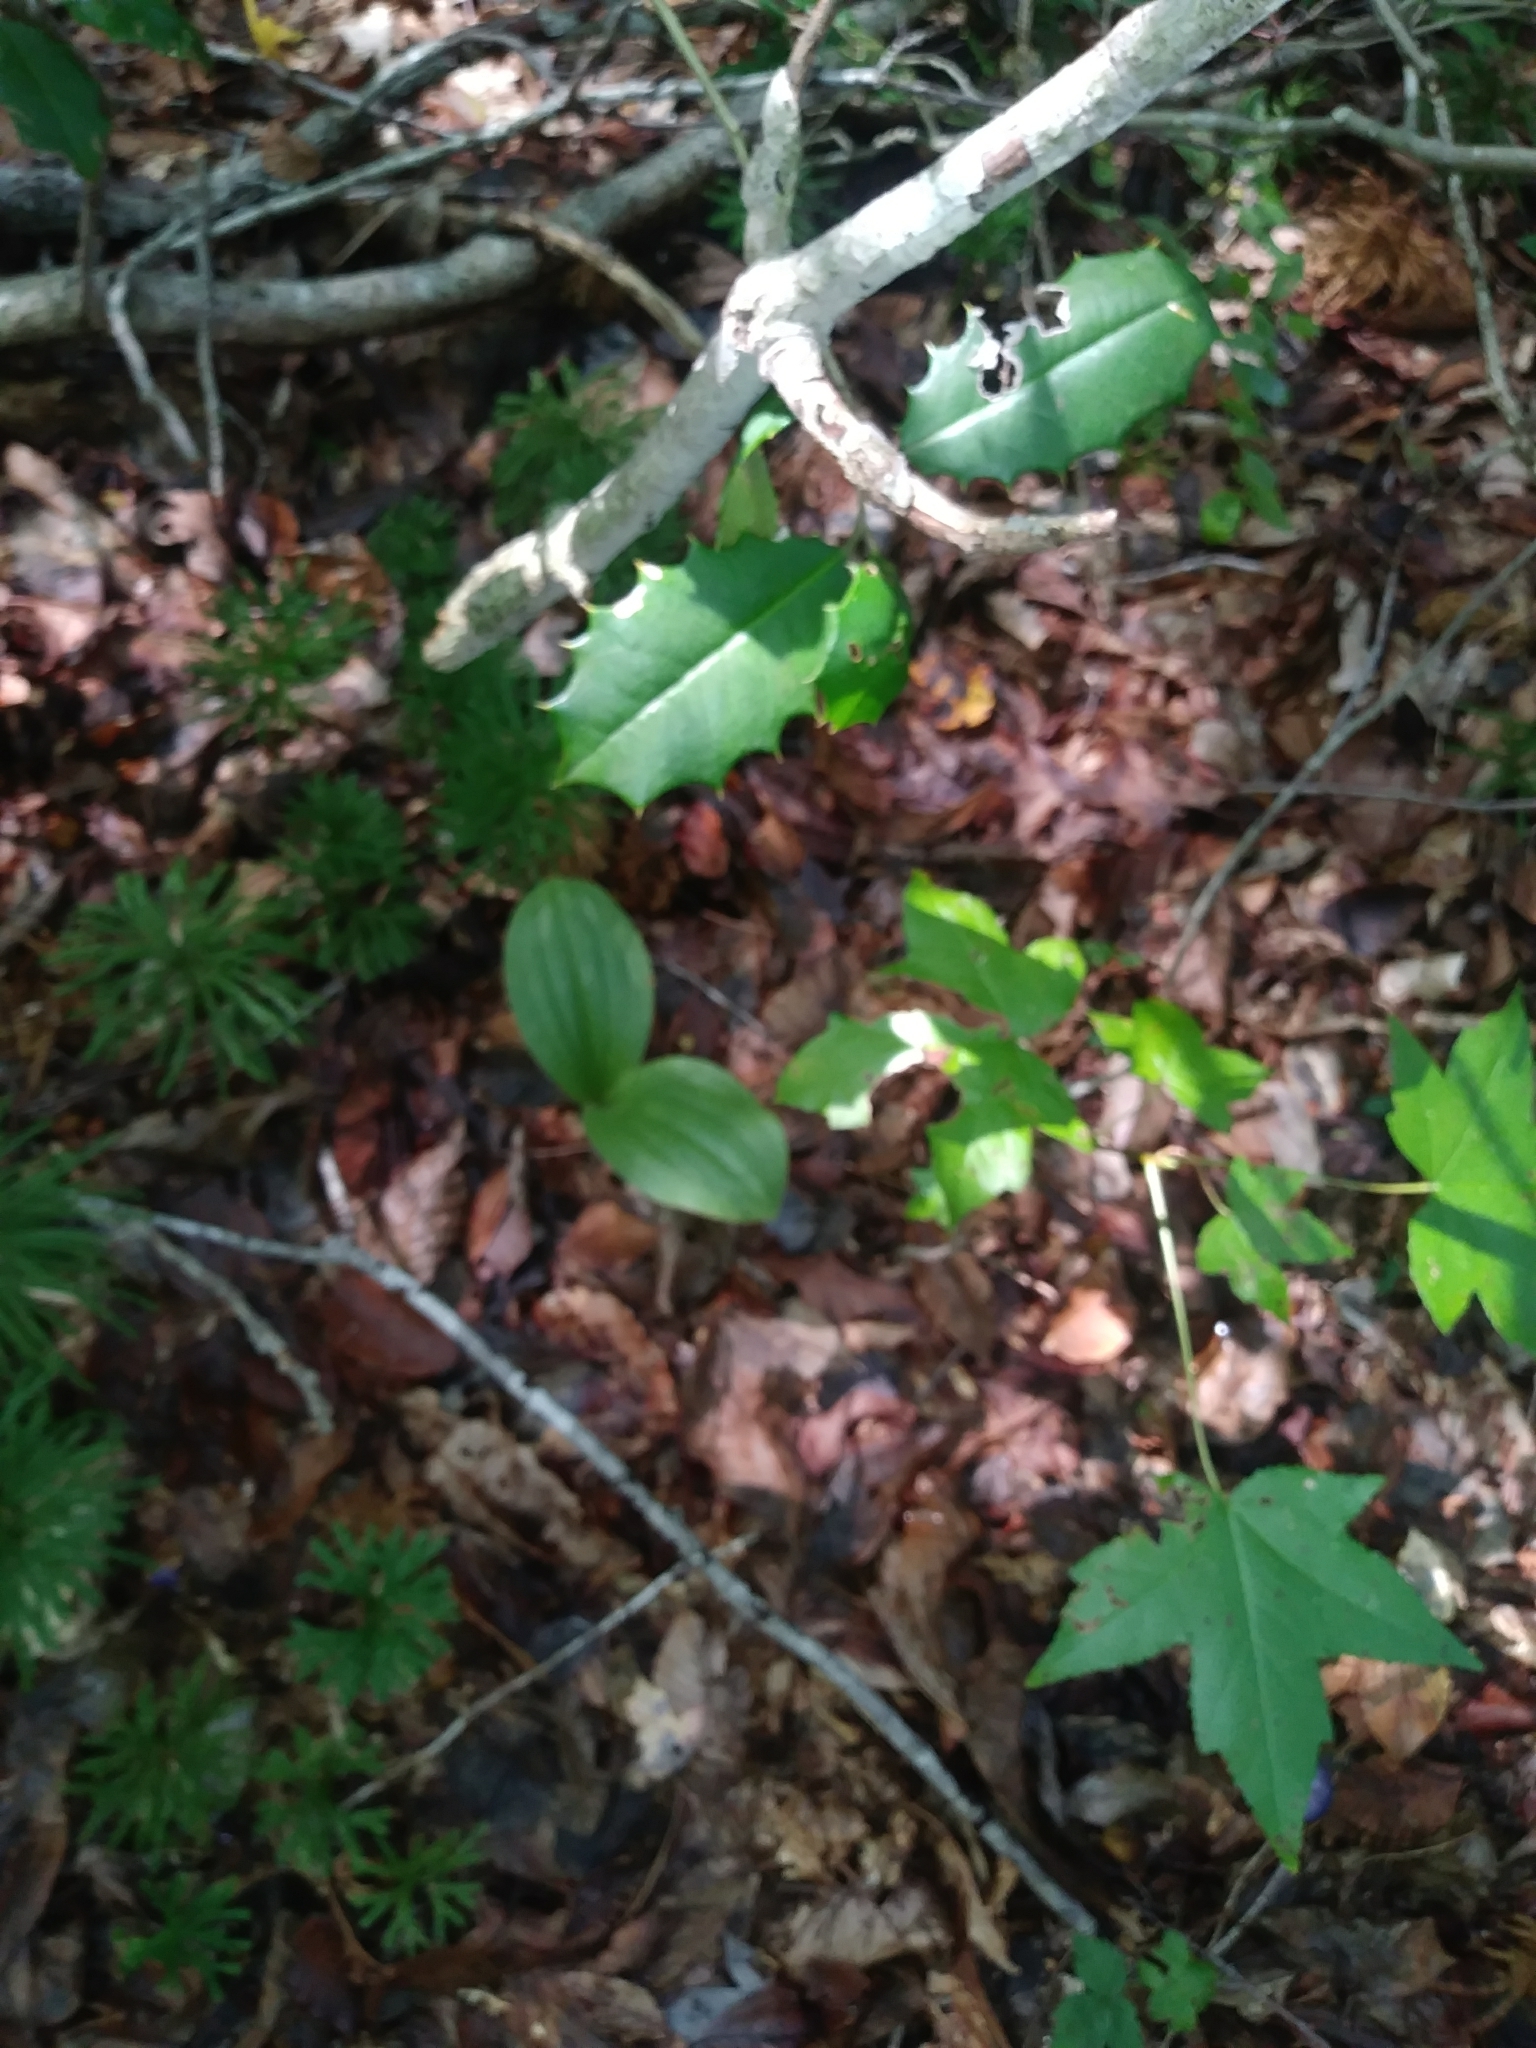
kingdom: Plantae
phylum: Tracheophyta
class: Liliopsida
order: Asparagales
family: Orchidaceae
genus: Cypripedium
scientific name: Cypripedium acaule
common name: Pink lady's-slipper
